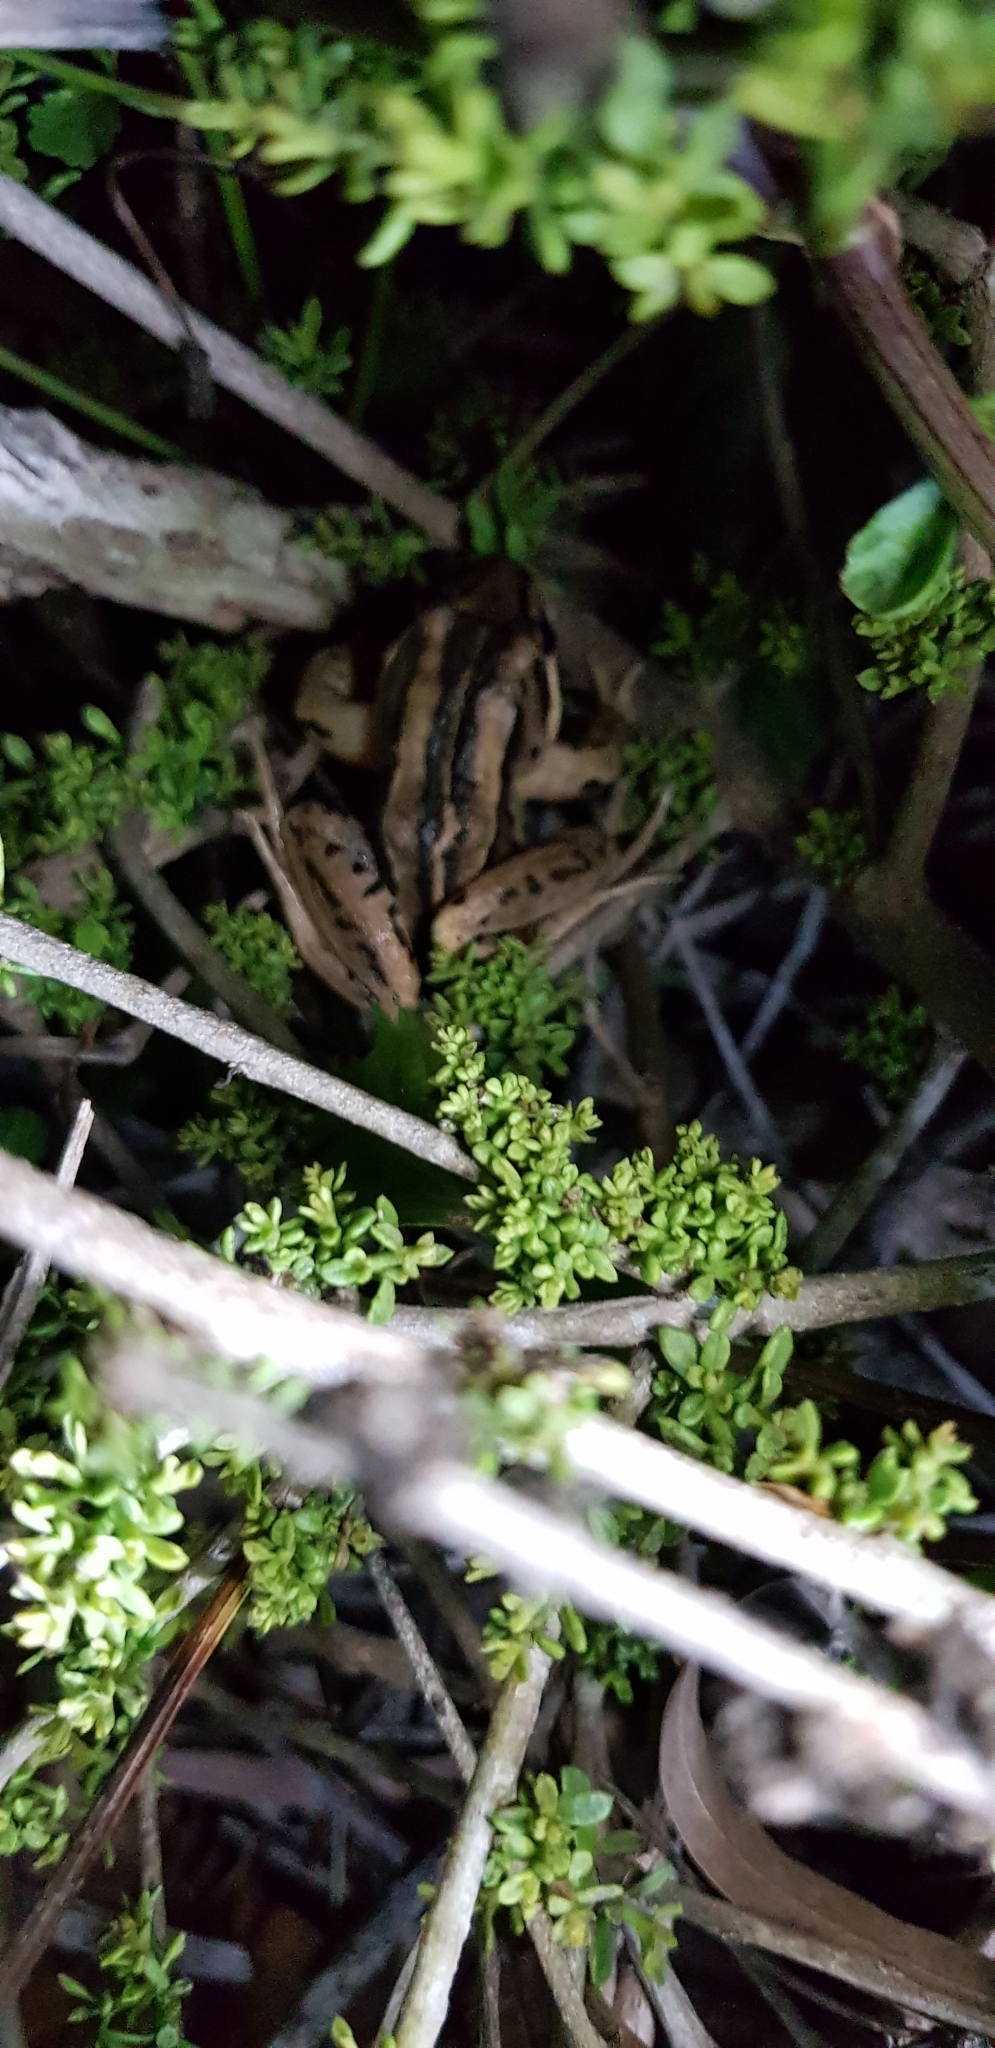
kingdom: Animalia
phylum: Chordata
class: Amphibia
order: Anura
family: Limnodynastidae
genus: Limnodynastes
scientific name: Limnodynastes peronii
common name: Brown frog
